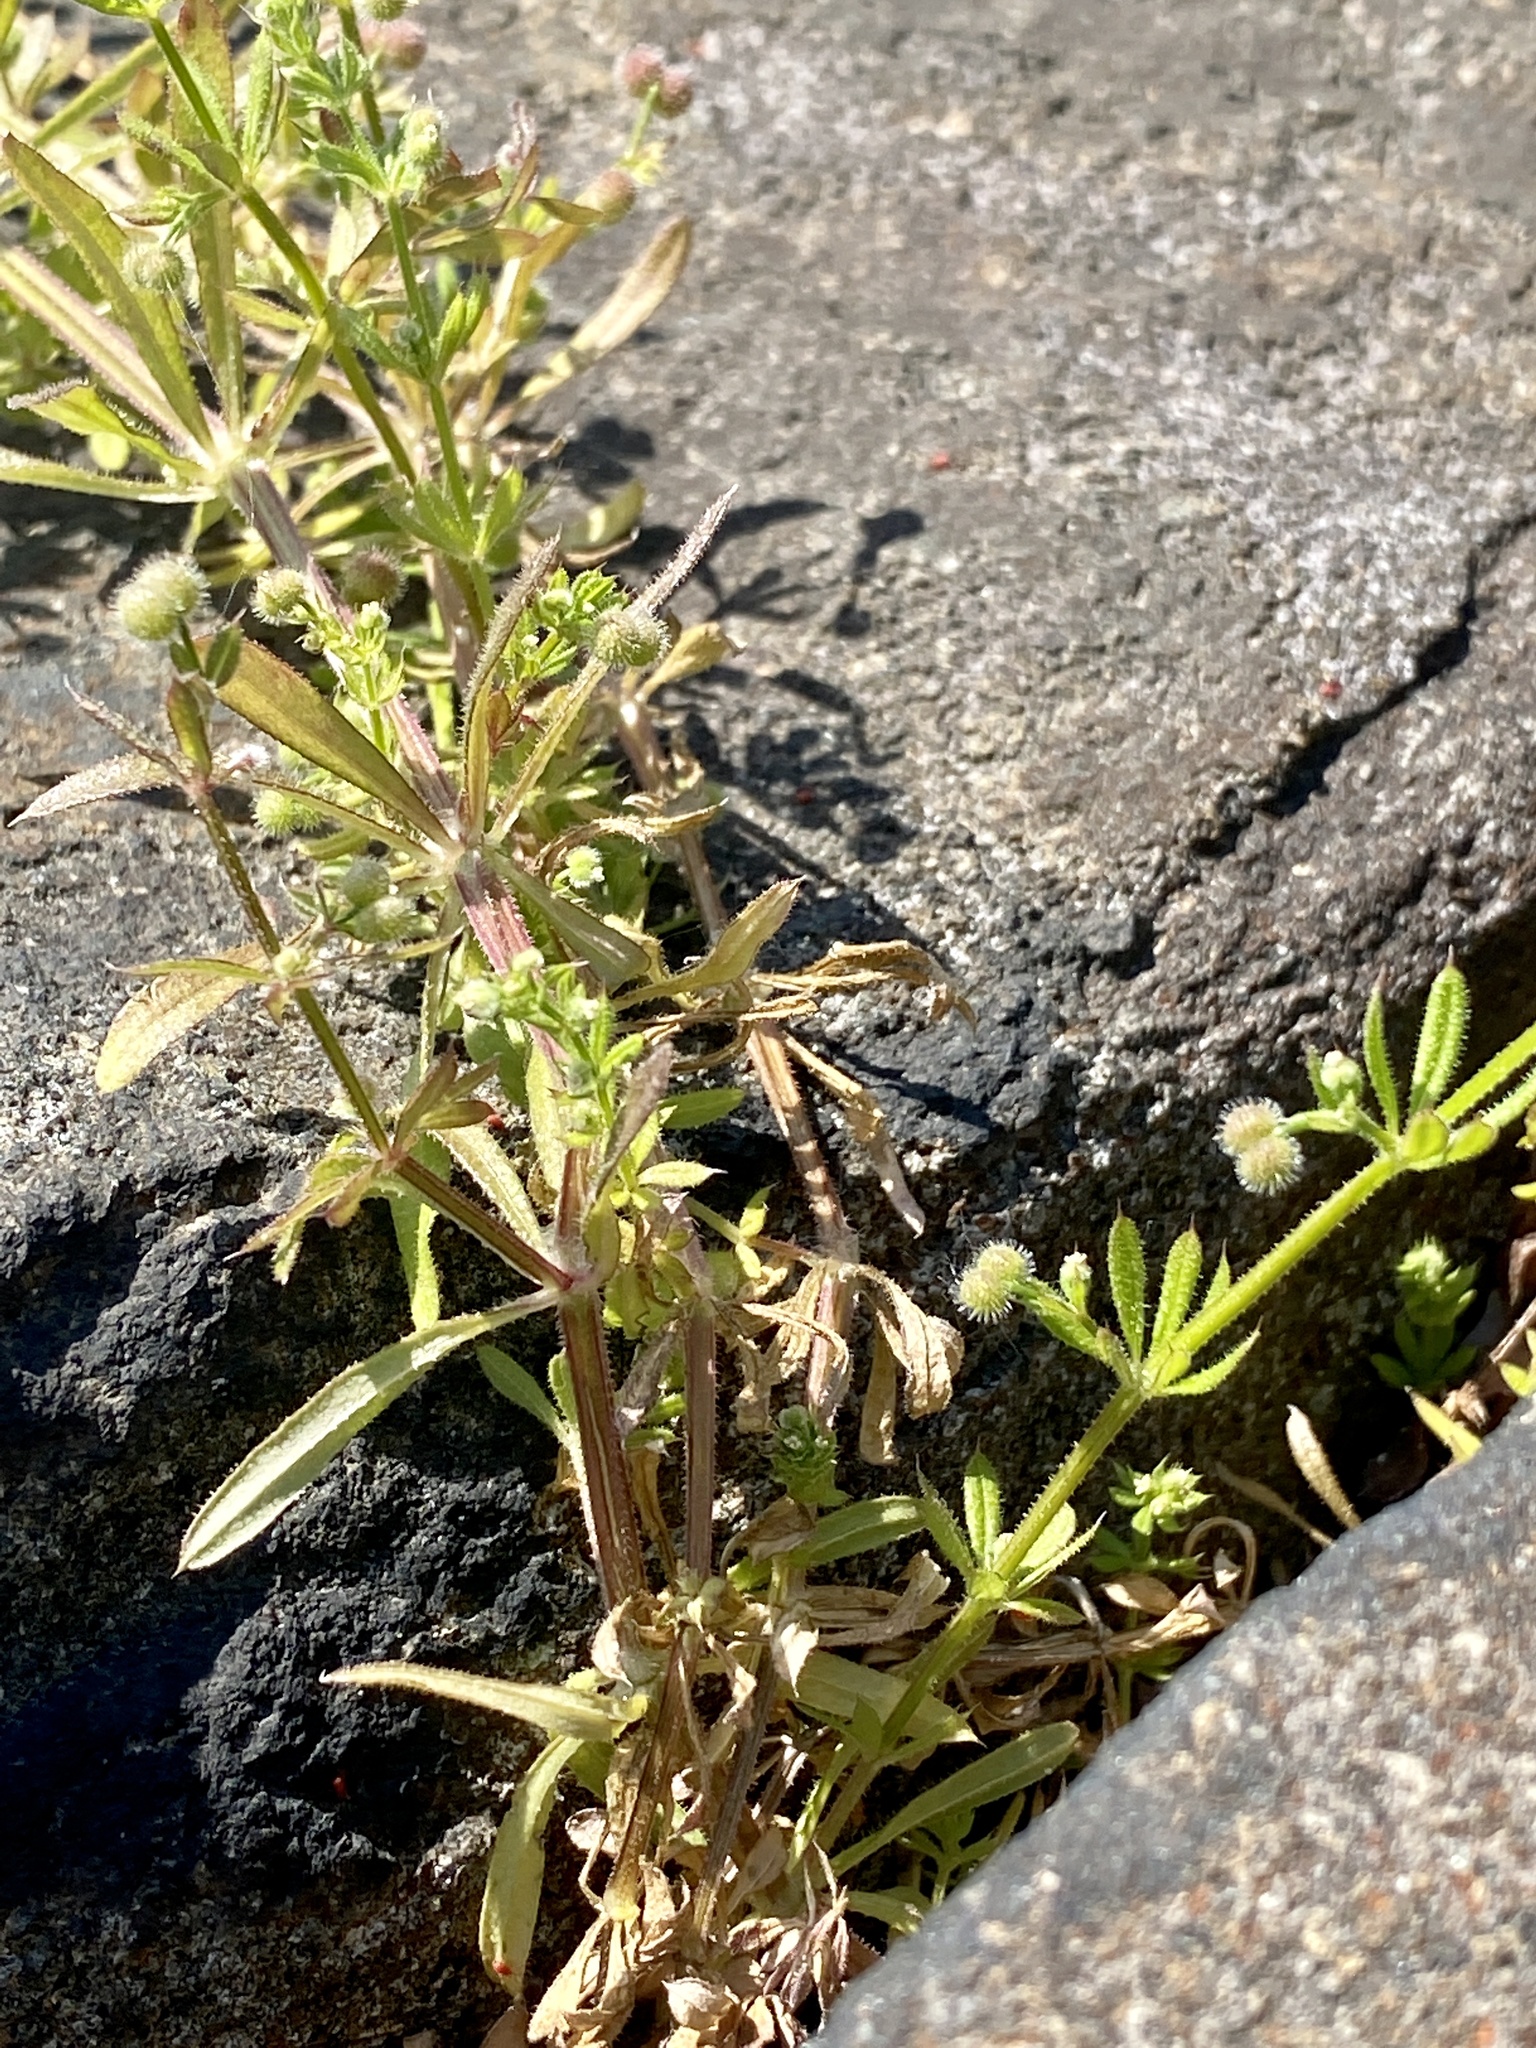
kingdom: Plantae
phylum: Tracheophyta
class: Magnoliopsida
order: Gentianales
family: Rubiaceae
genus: Galium
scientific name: Galium aparine
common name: Cleavers
